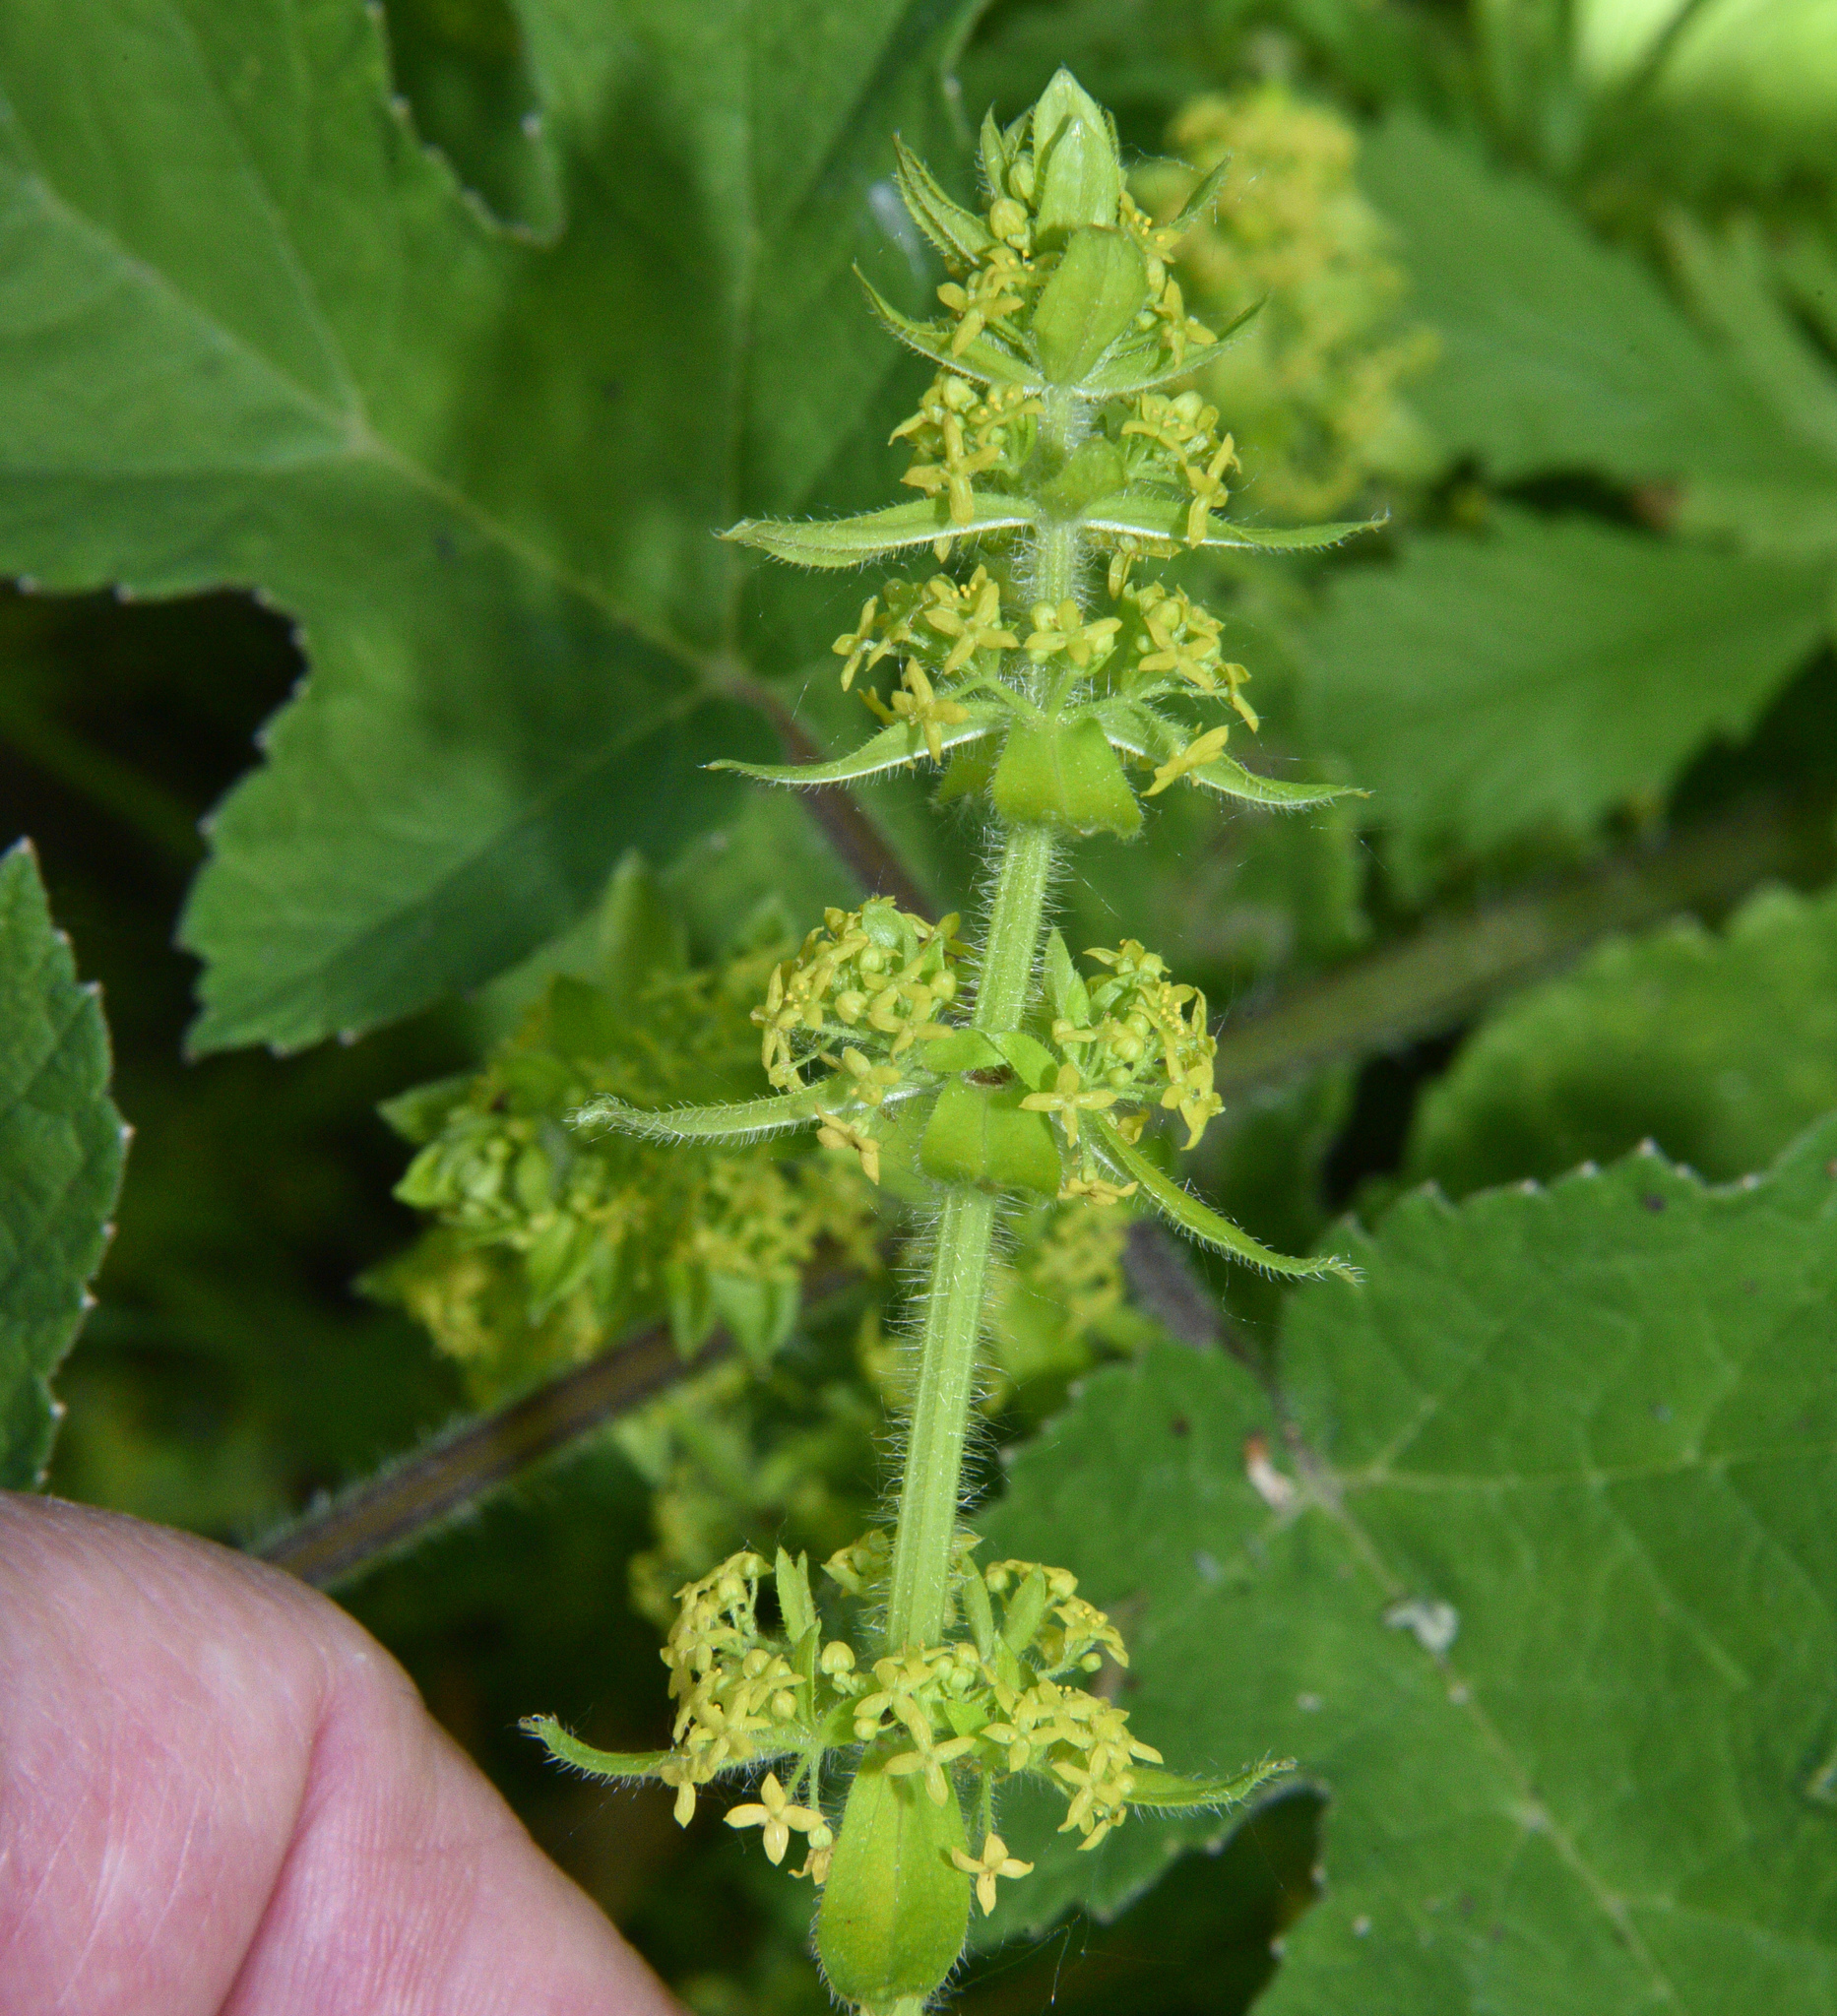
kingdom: Plantae
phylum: Tracheophyta
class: Magnoliopsida
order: Gentianales
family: Rubiaceae
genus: Cruciata
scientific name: Cruciata laevipes
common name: Crosswort
